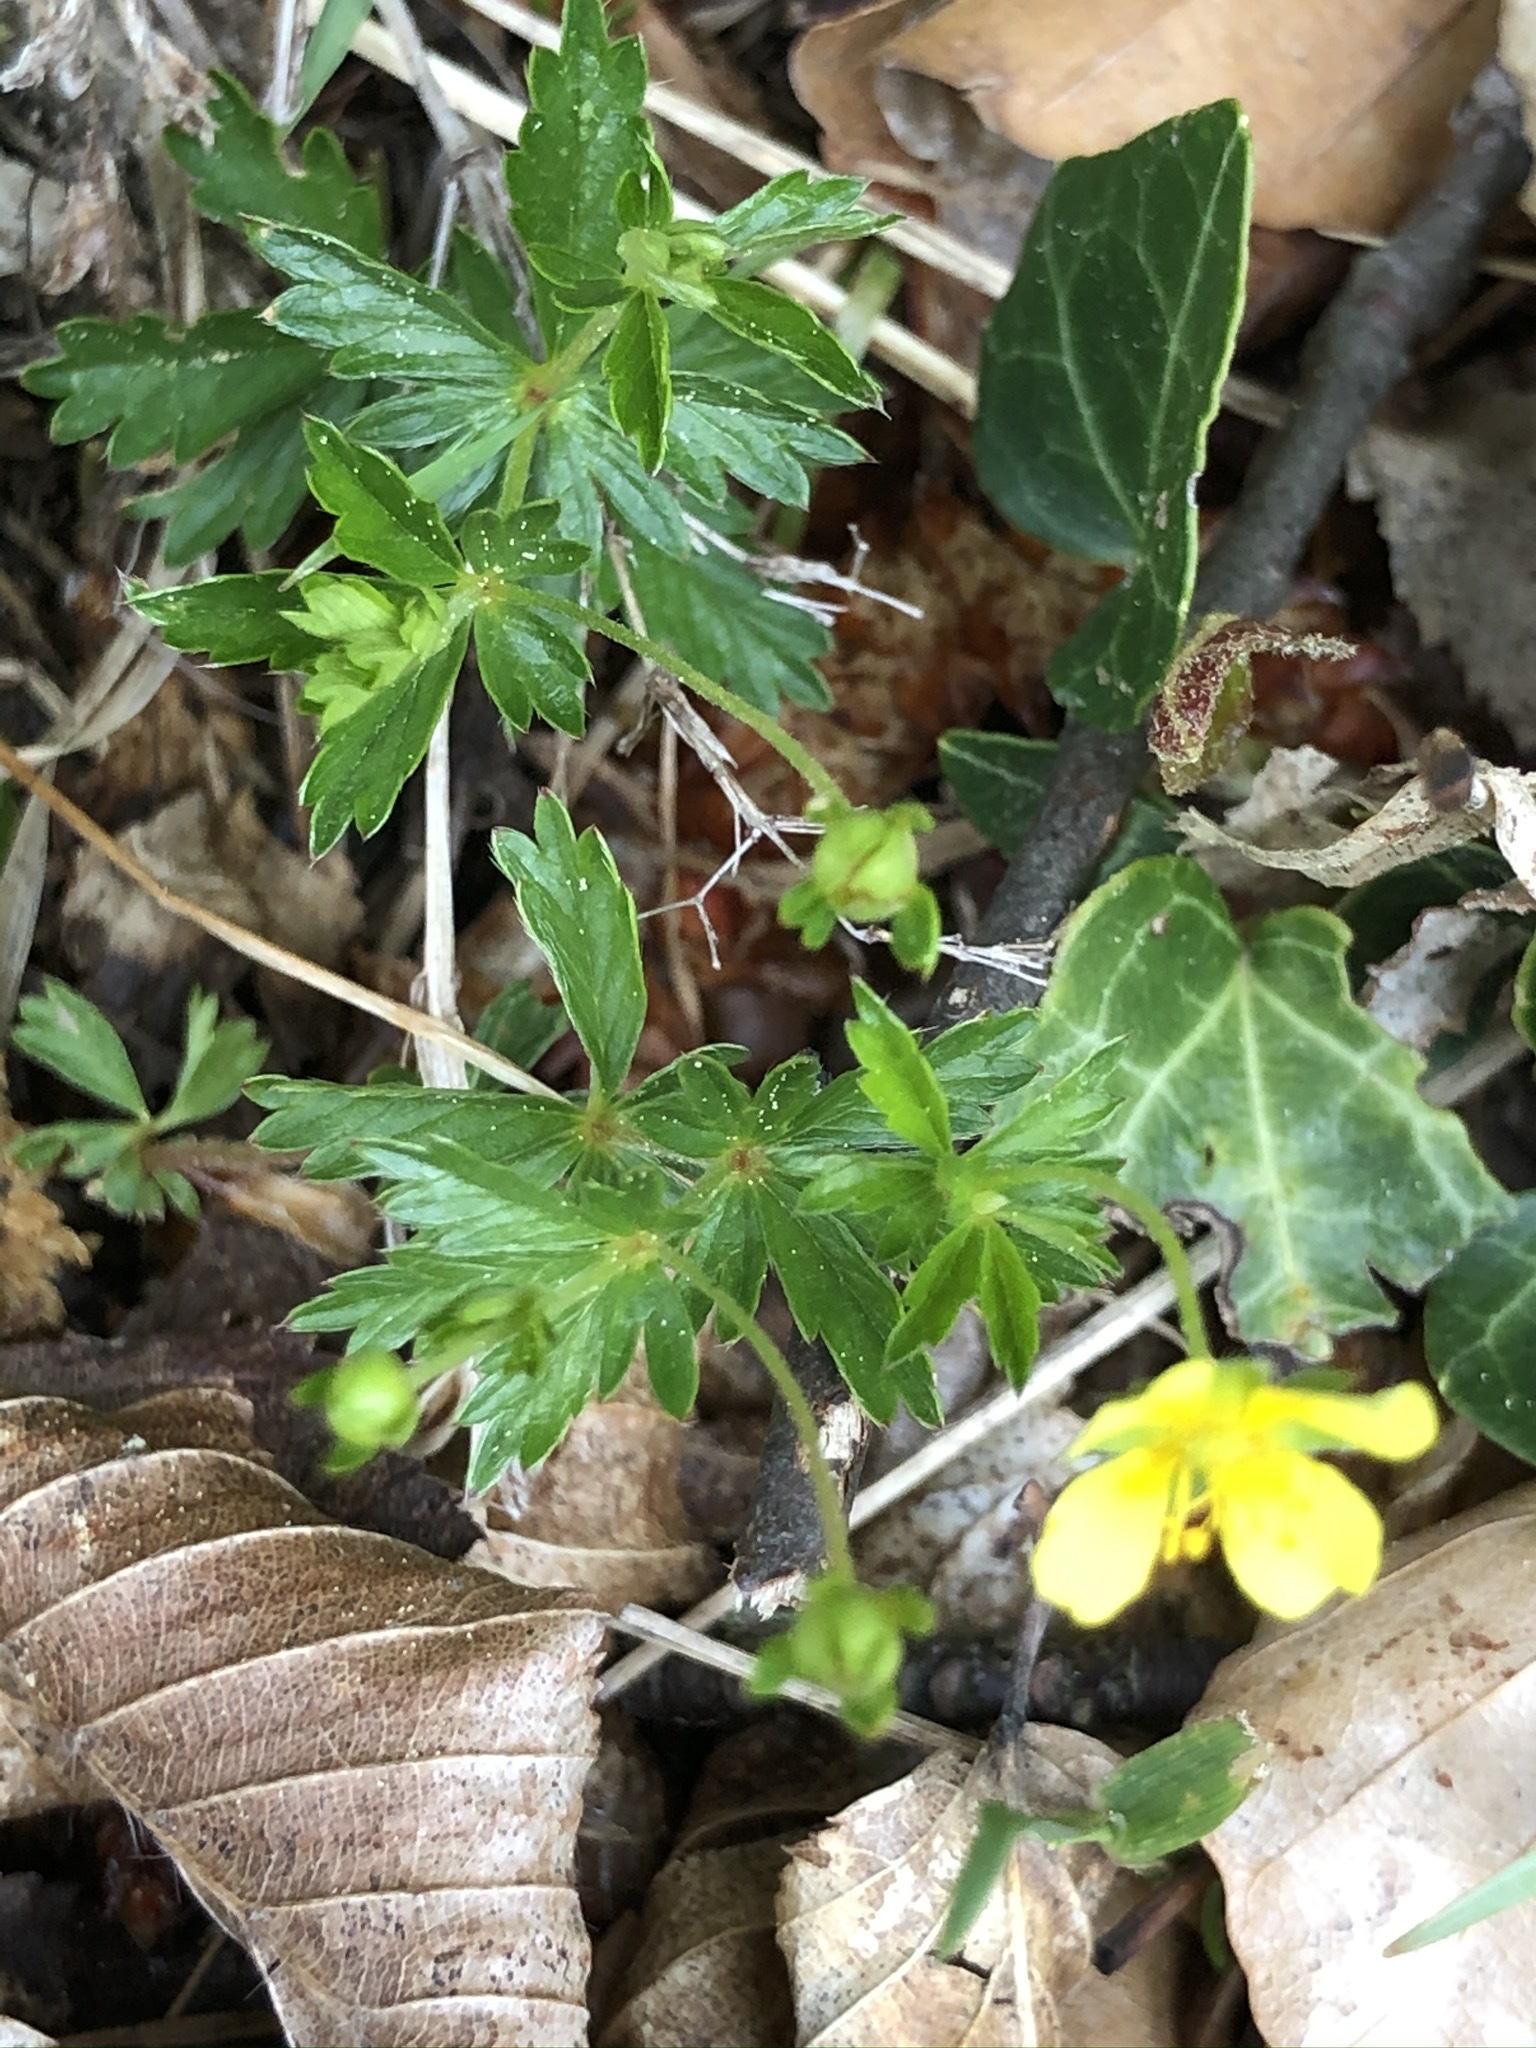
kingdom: Plantae
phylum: Tracheophyta
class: Magnoliopsida
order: Rosales
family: Rosaceae
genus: Potentilla
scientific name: Potentilla erecta
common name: Tormentil
